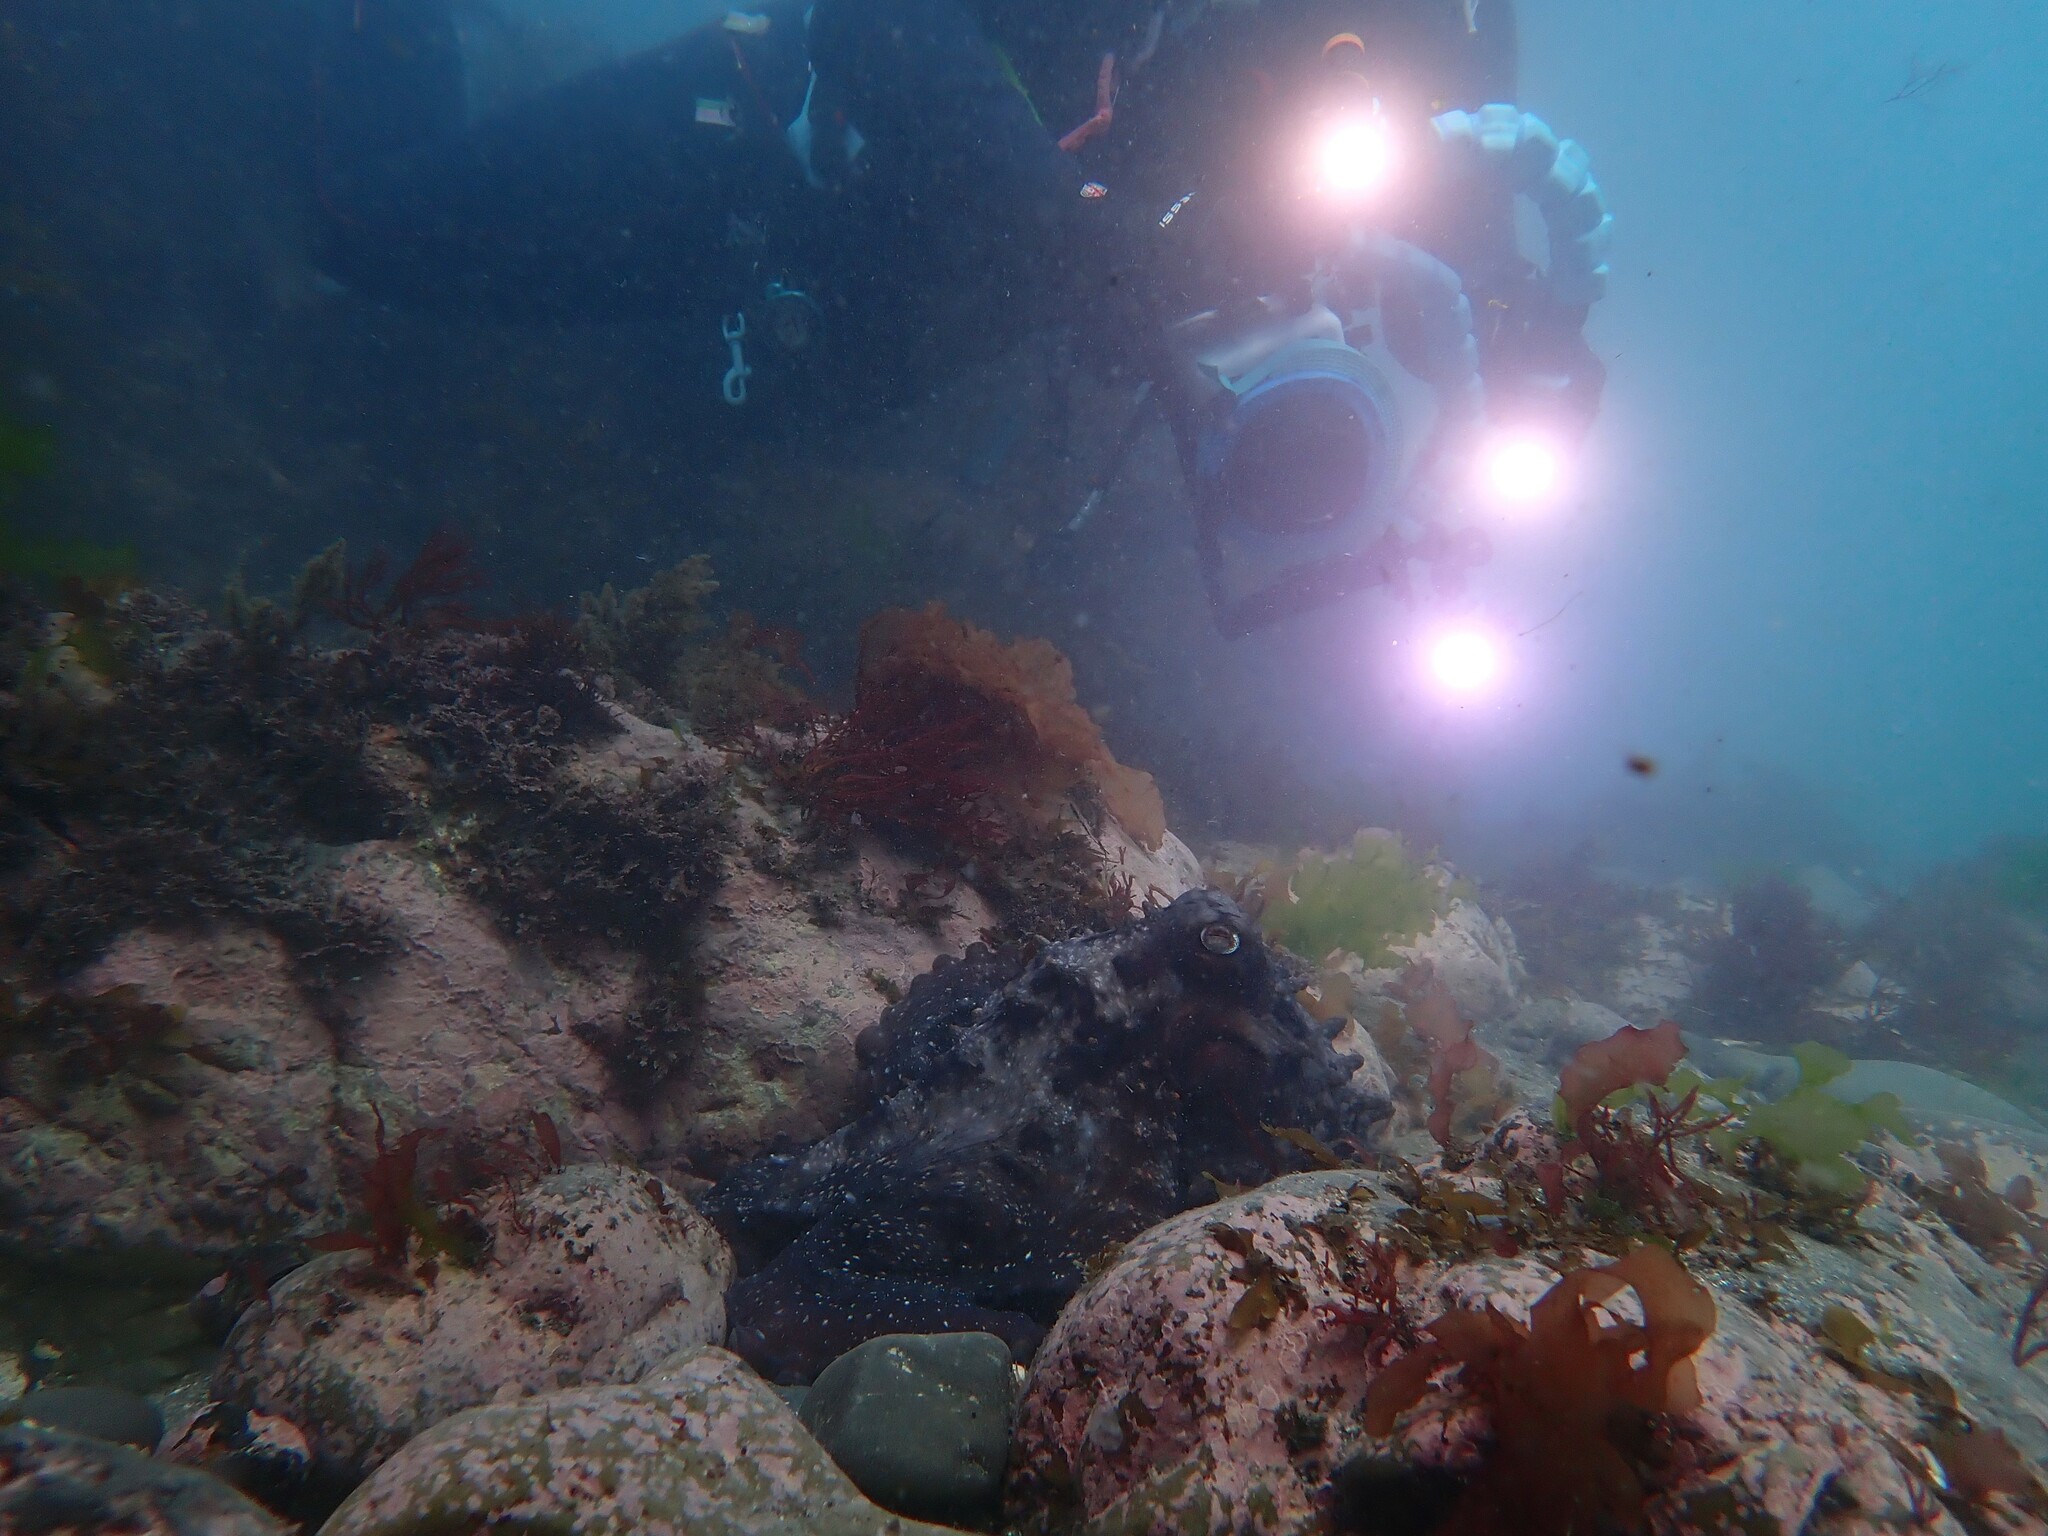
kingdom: Animalia
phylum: Mollusca
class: Cephalopoda
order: Octopoda
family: Octopodidae
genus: Macroctopus
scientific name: Macroctopus maorum
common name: Maori octopus
